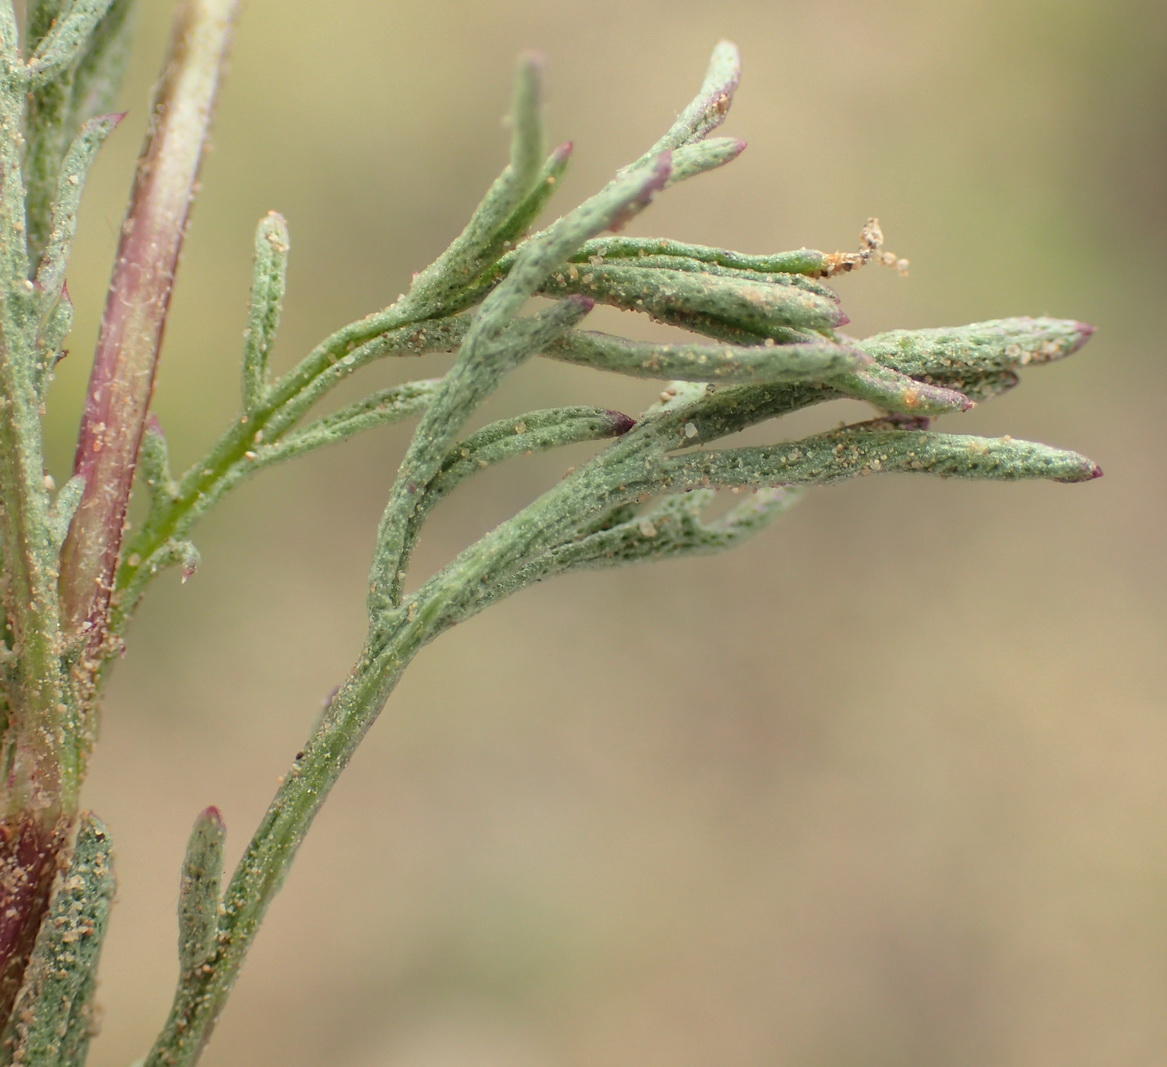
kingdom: Plantae
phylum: Tracheophyta
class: Magnoliopsida
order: Asterales
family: Asteraceae
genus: Ursinia
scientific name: Ursinia nana
